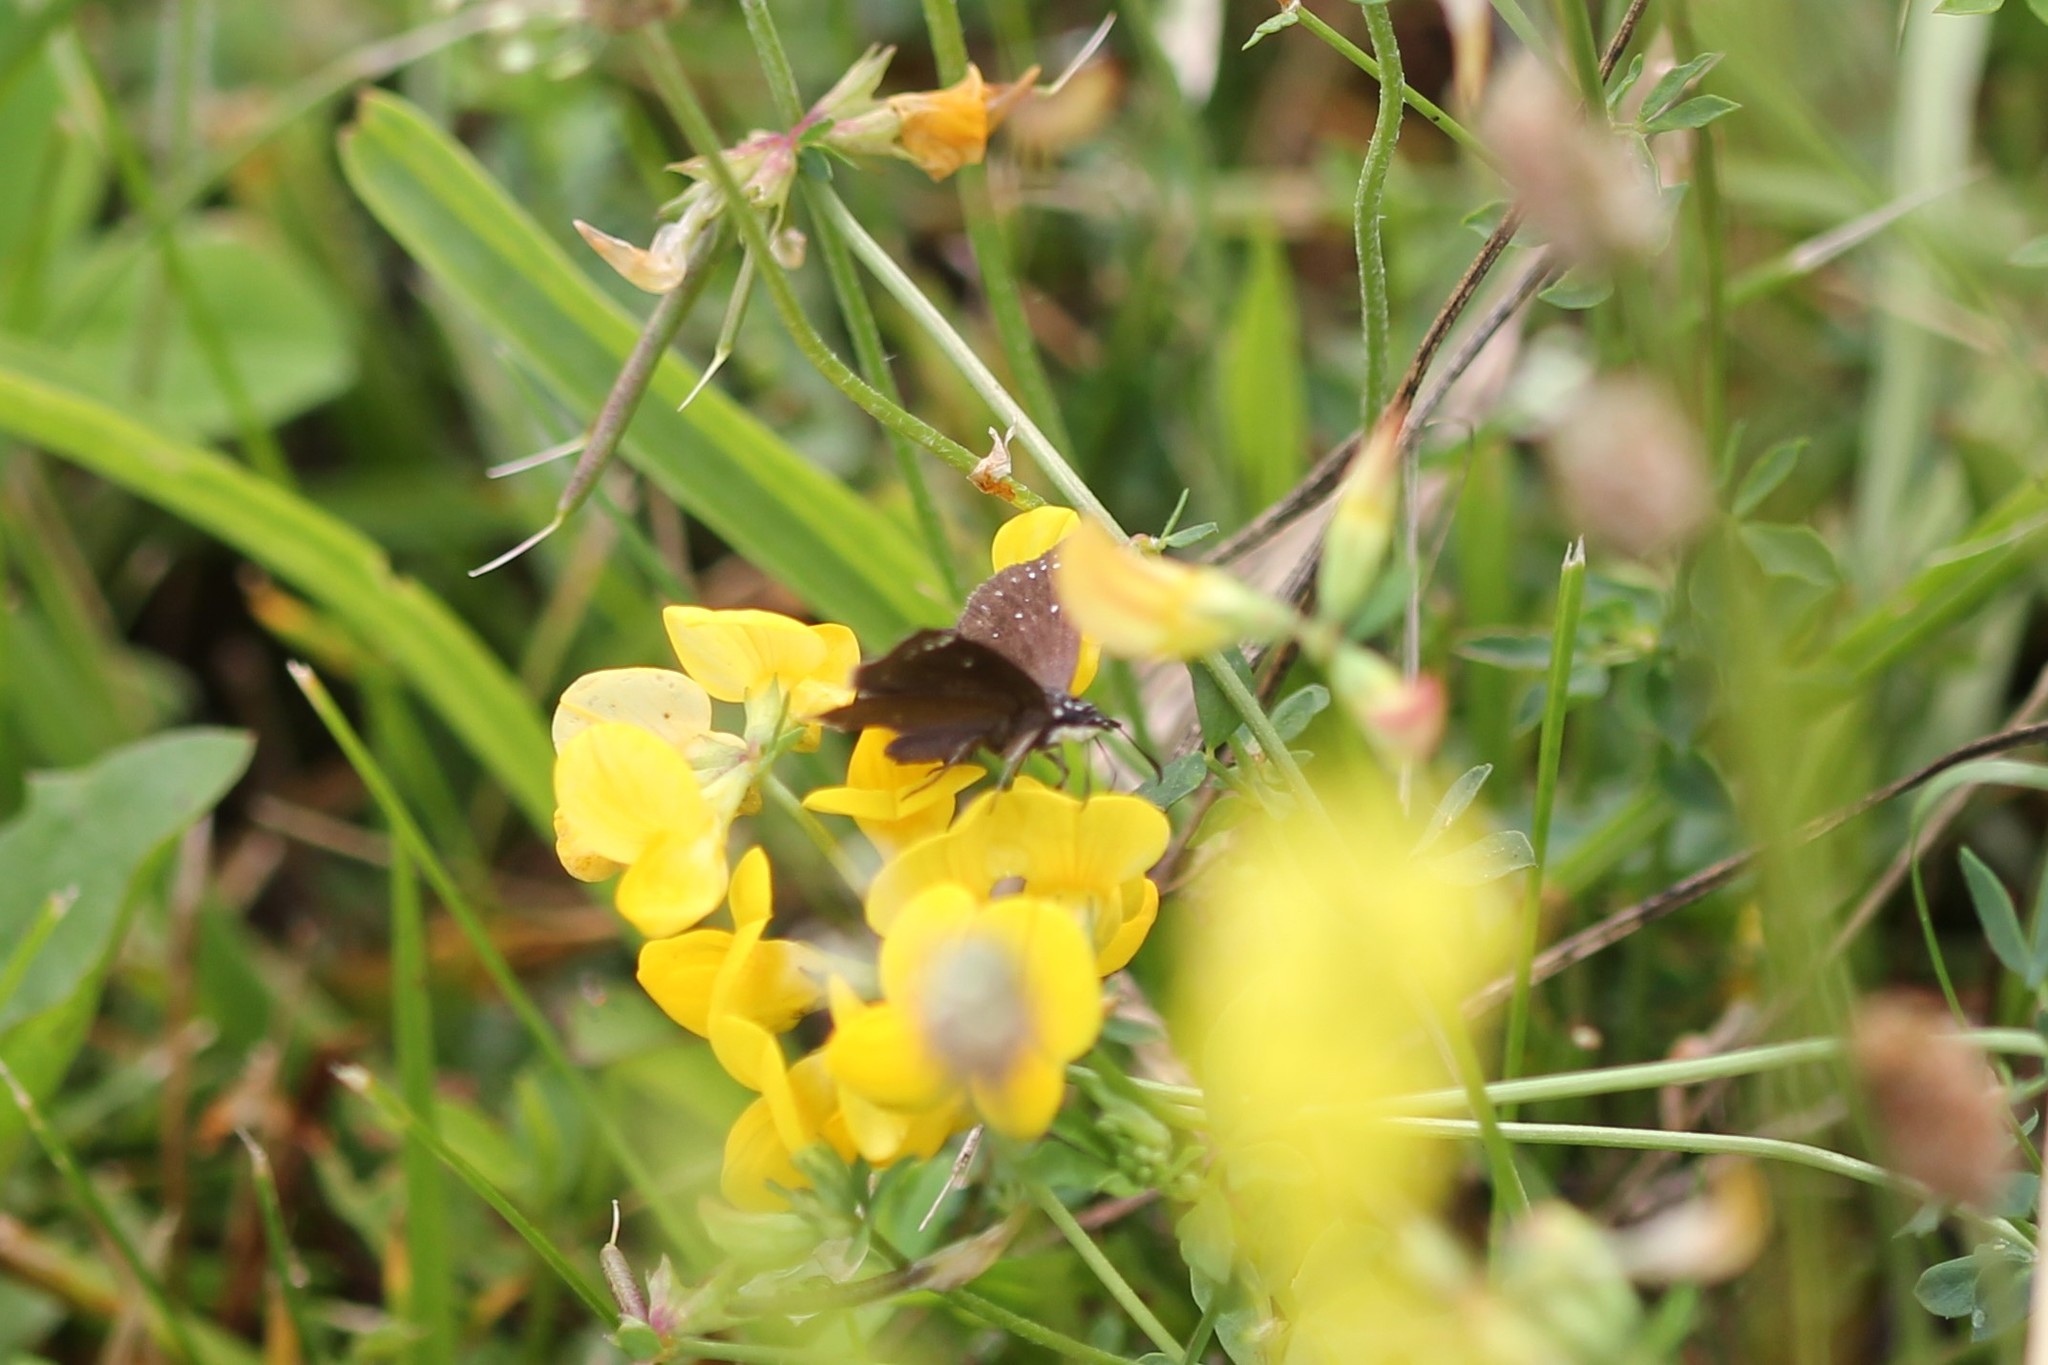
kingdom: Animalia
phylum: Arthropoda
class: Insecta
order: Lepidoptera
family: Hesperiidae
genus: Pholisora
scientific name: Pholisora catullus
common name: Common sootywing
